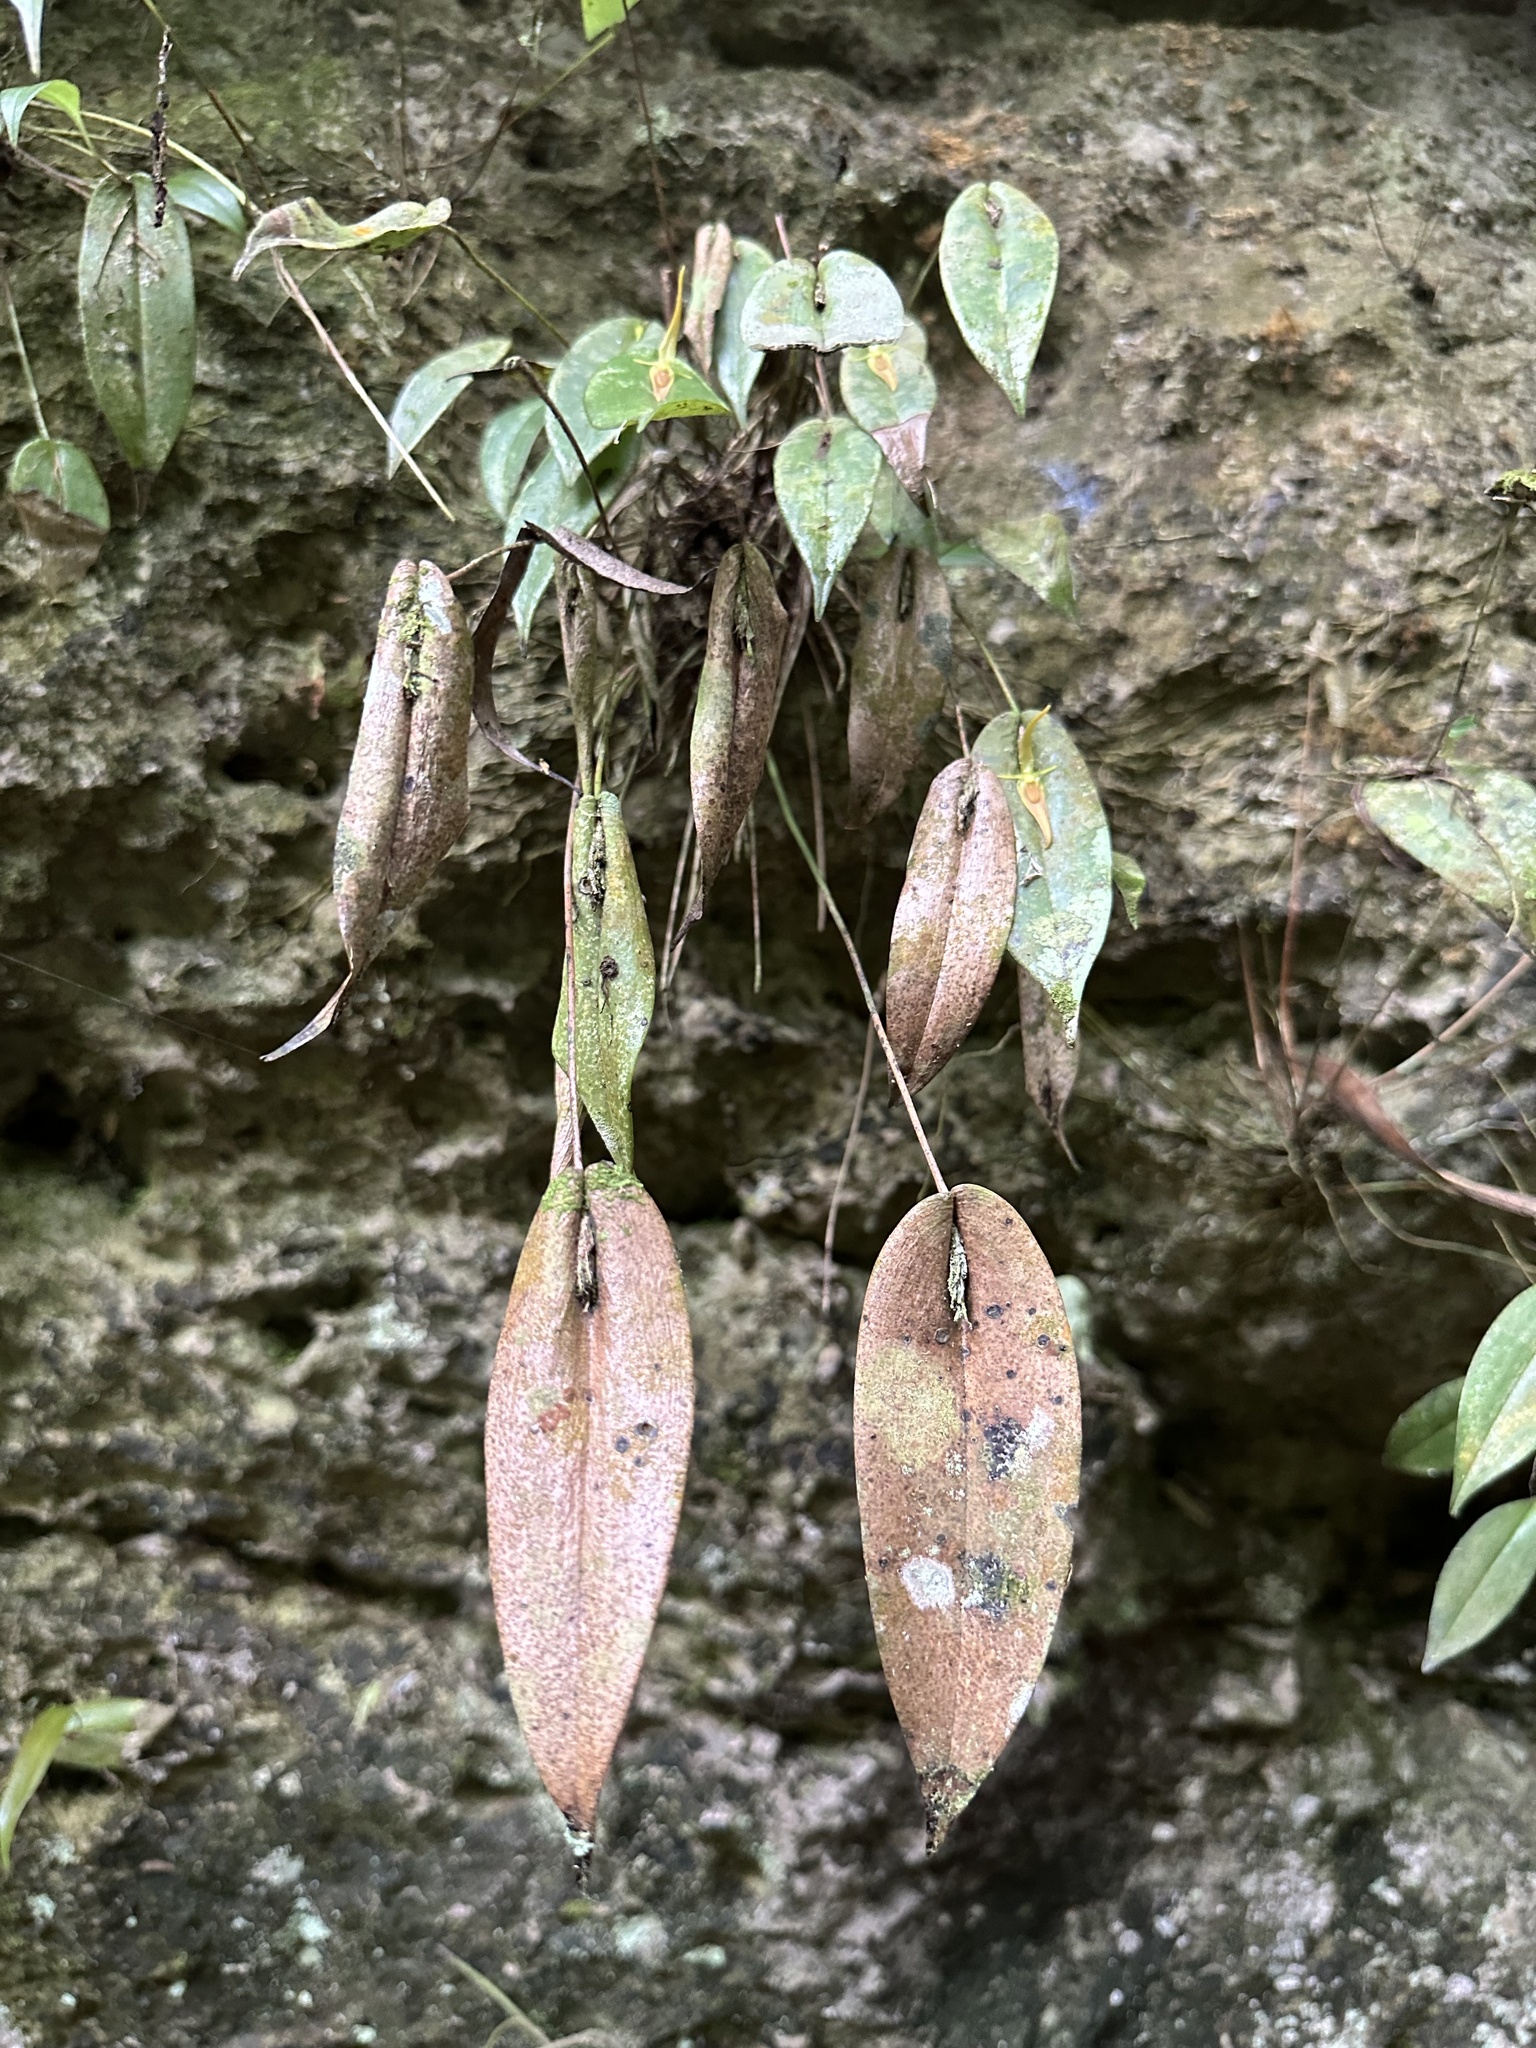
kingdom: Plantae
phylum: Tracheophyta
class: Liliopsida
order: Asparagales
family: Orchidaceae
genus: Pleurothallis
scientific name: Pleurothallis microcardia
